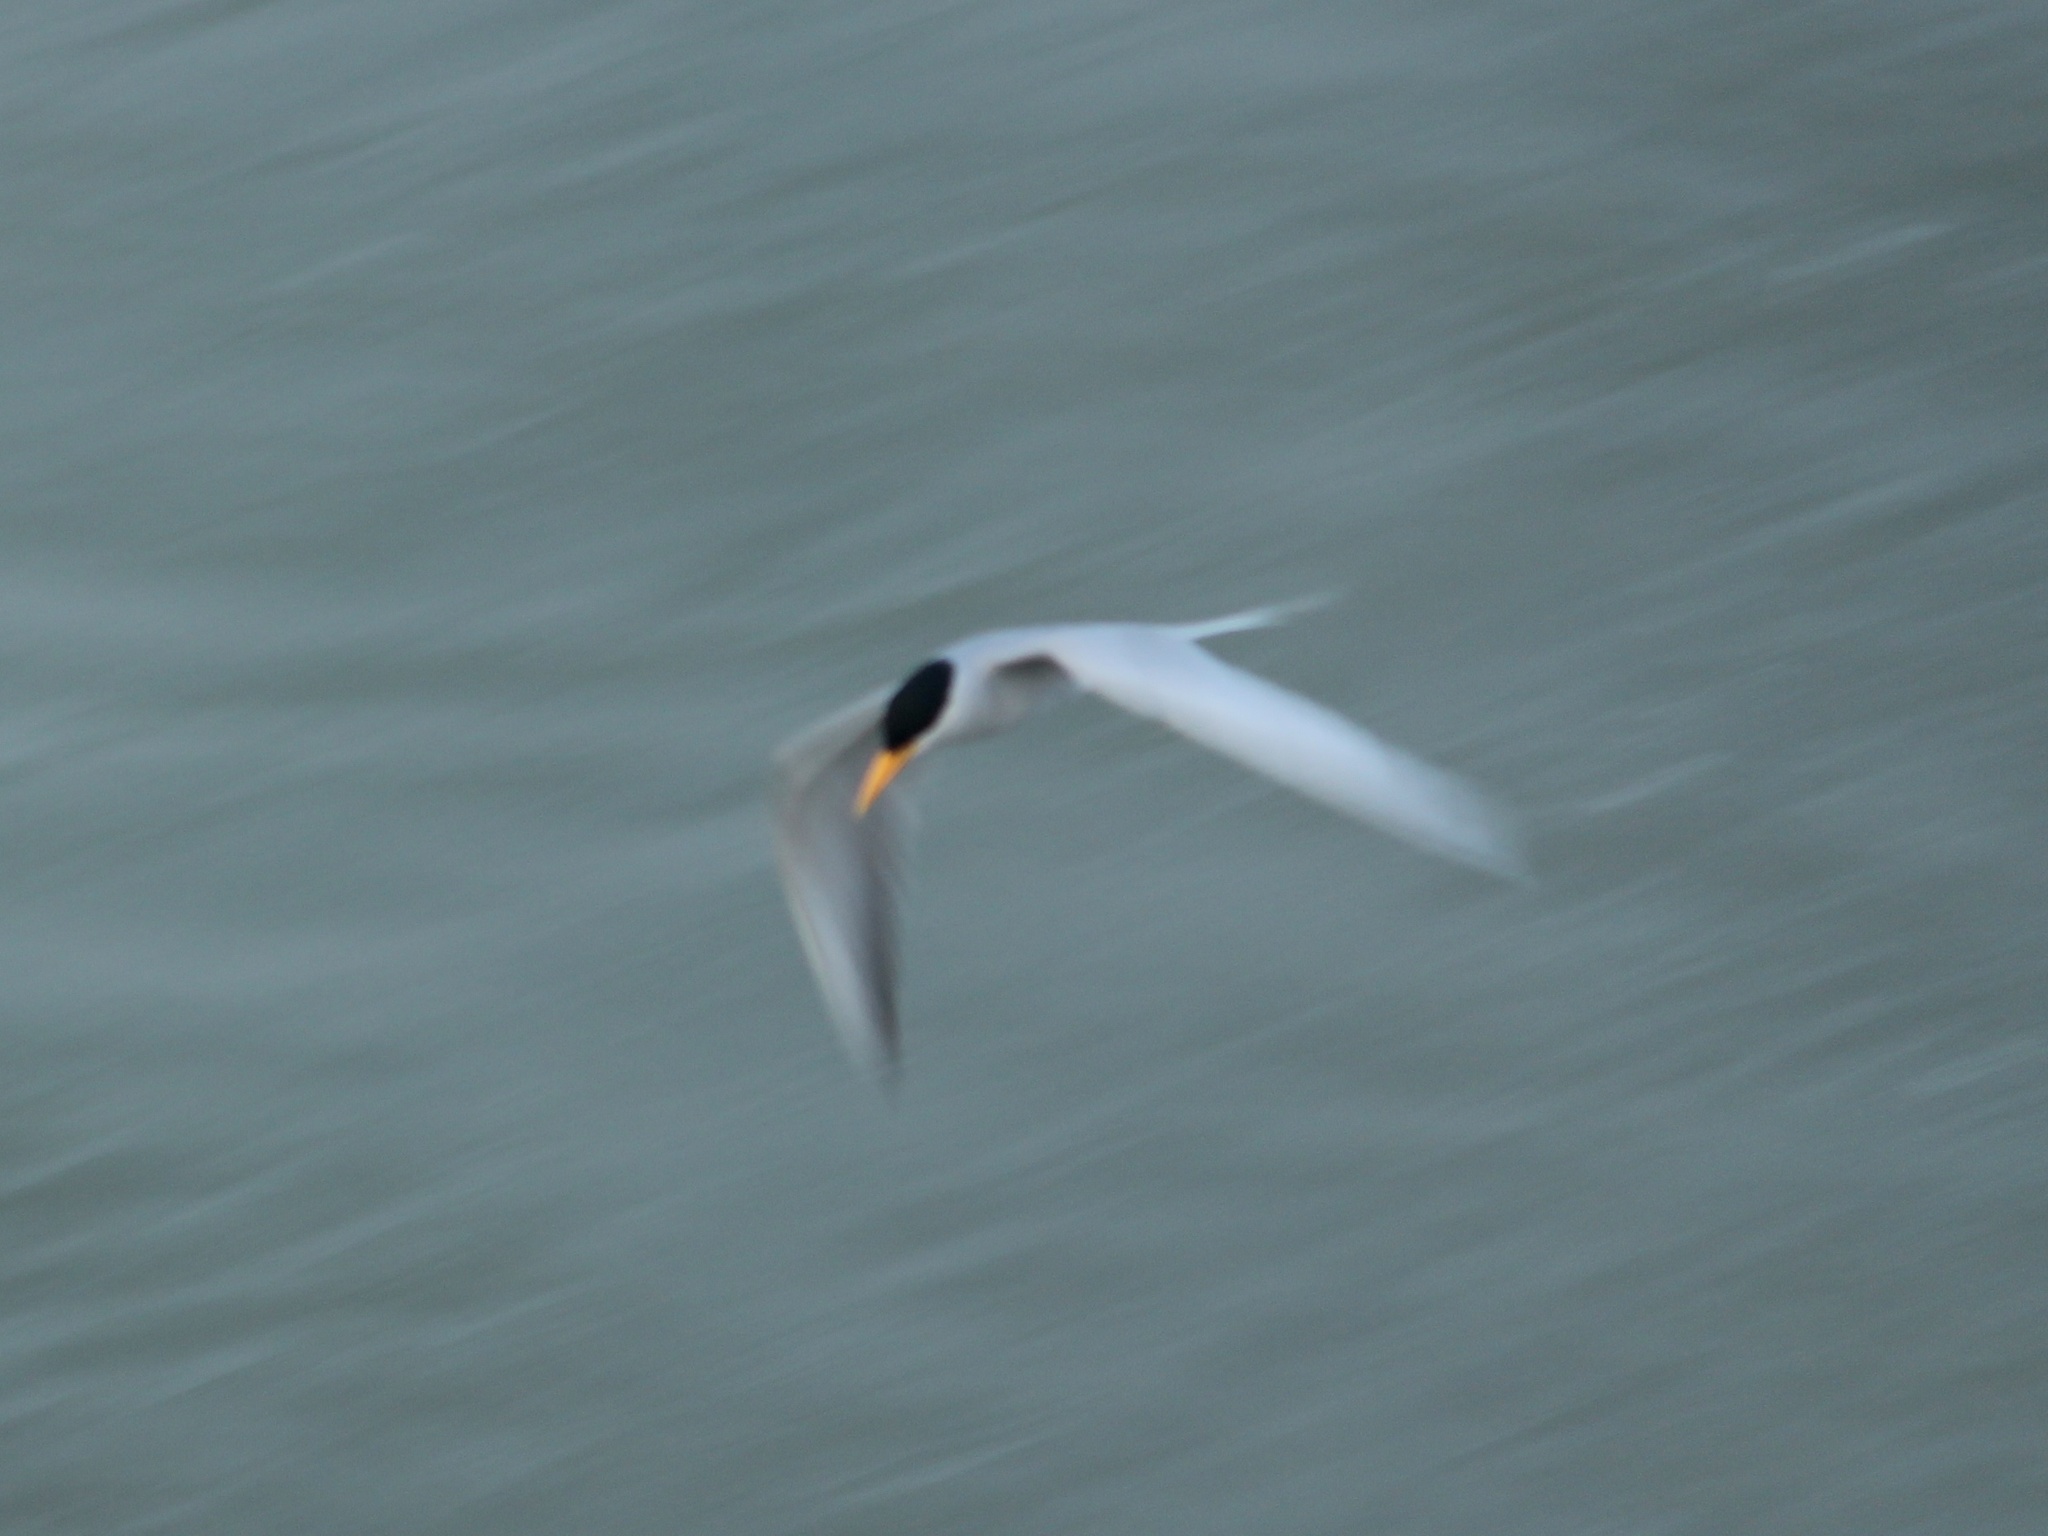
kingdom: Animalia
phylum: Chordata
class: Aves
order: Charadriiformes
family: Laridae
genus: Sterna
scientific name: Sterna aurantia
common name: River tern
